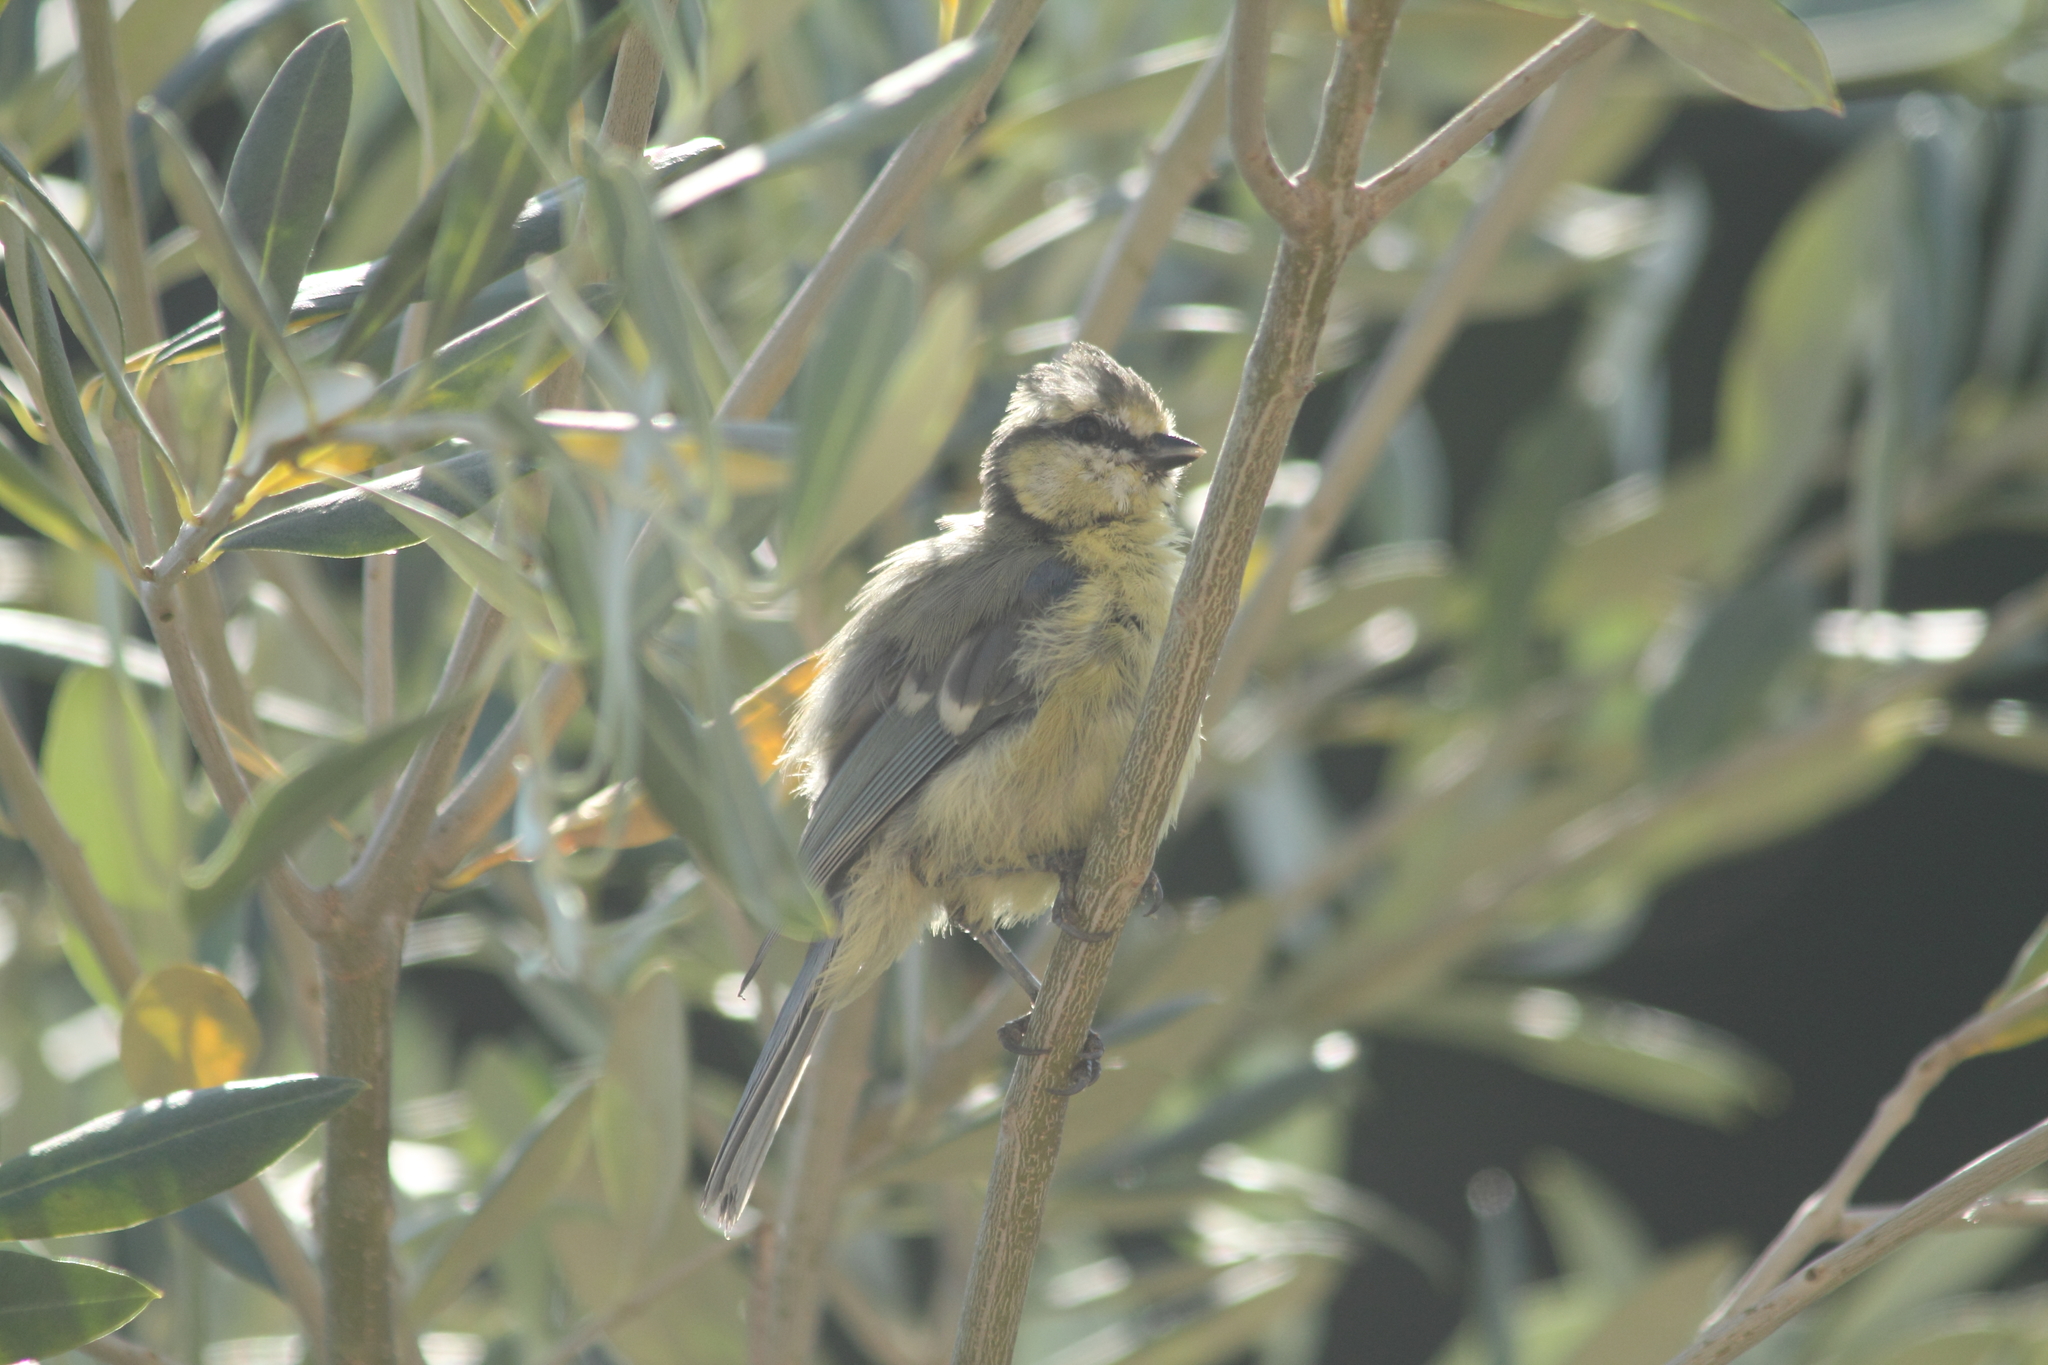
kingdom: Animalia
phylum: Chordata
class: Aves
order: Passeriformes
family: Paridae
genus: Cyanistes
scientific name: Cyanistes caeruleus
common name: Eurasian blue tit
